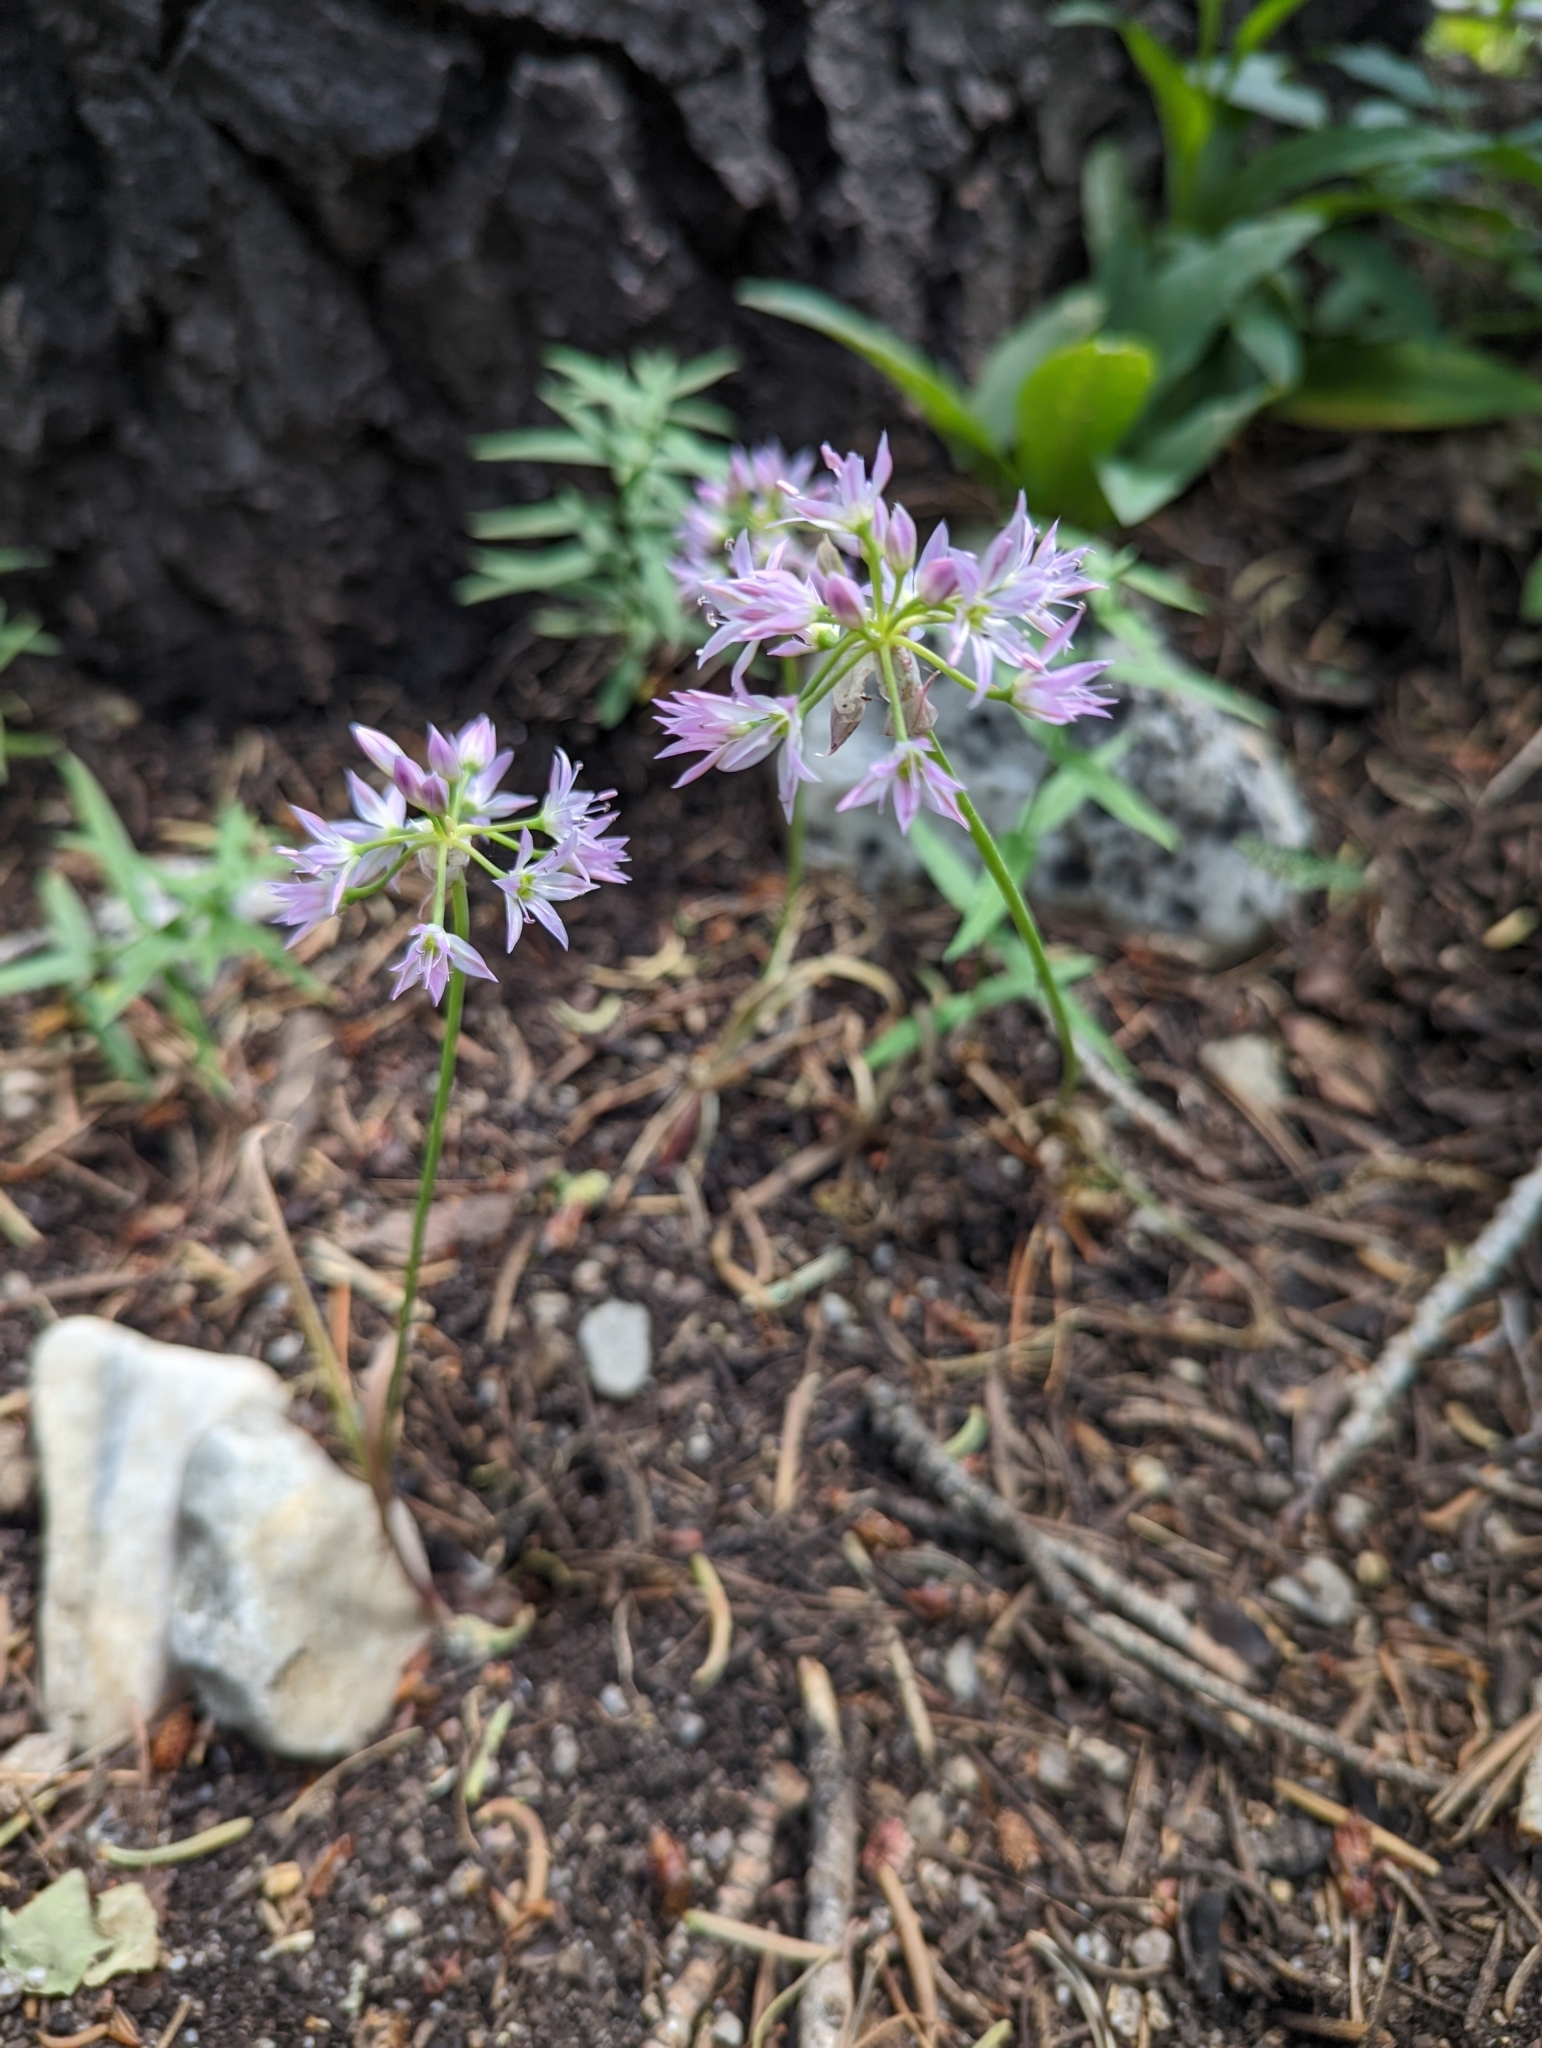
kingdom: Plantae
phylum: Tracheophyta
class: Liliopsida
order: Asparagales
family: Amaryllidaceae
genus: Allium
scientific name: Allium bisceptrum
